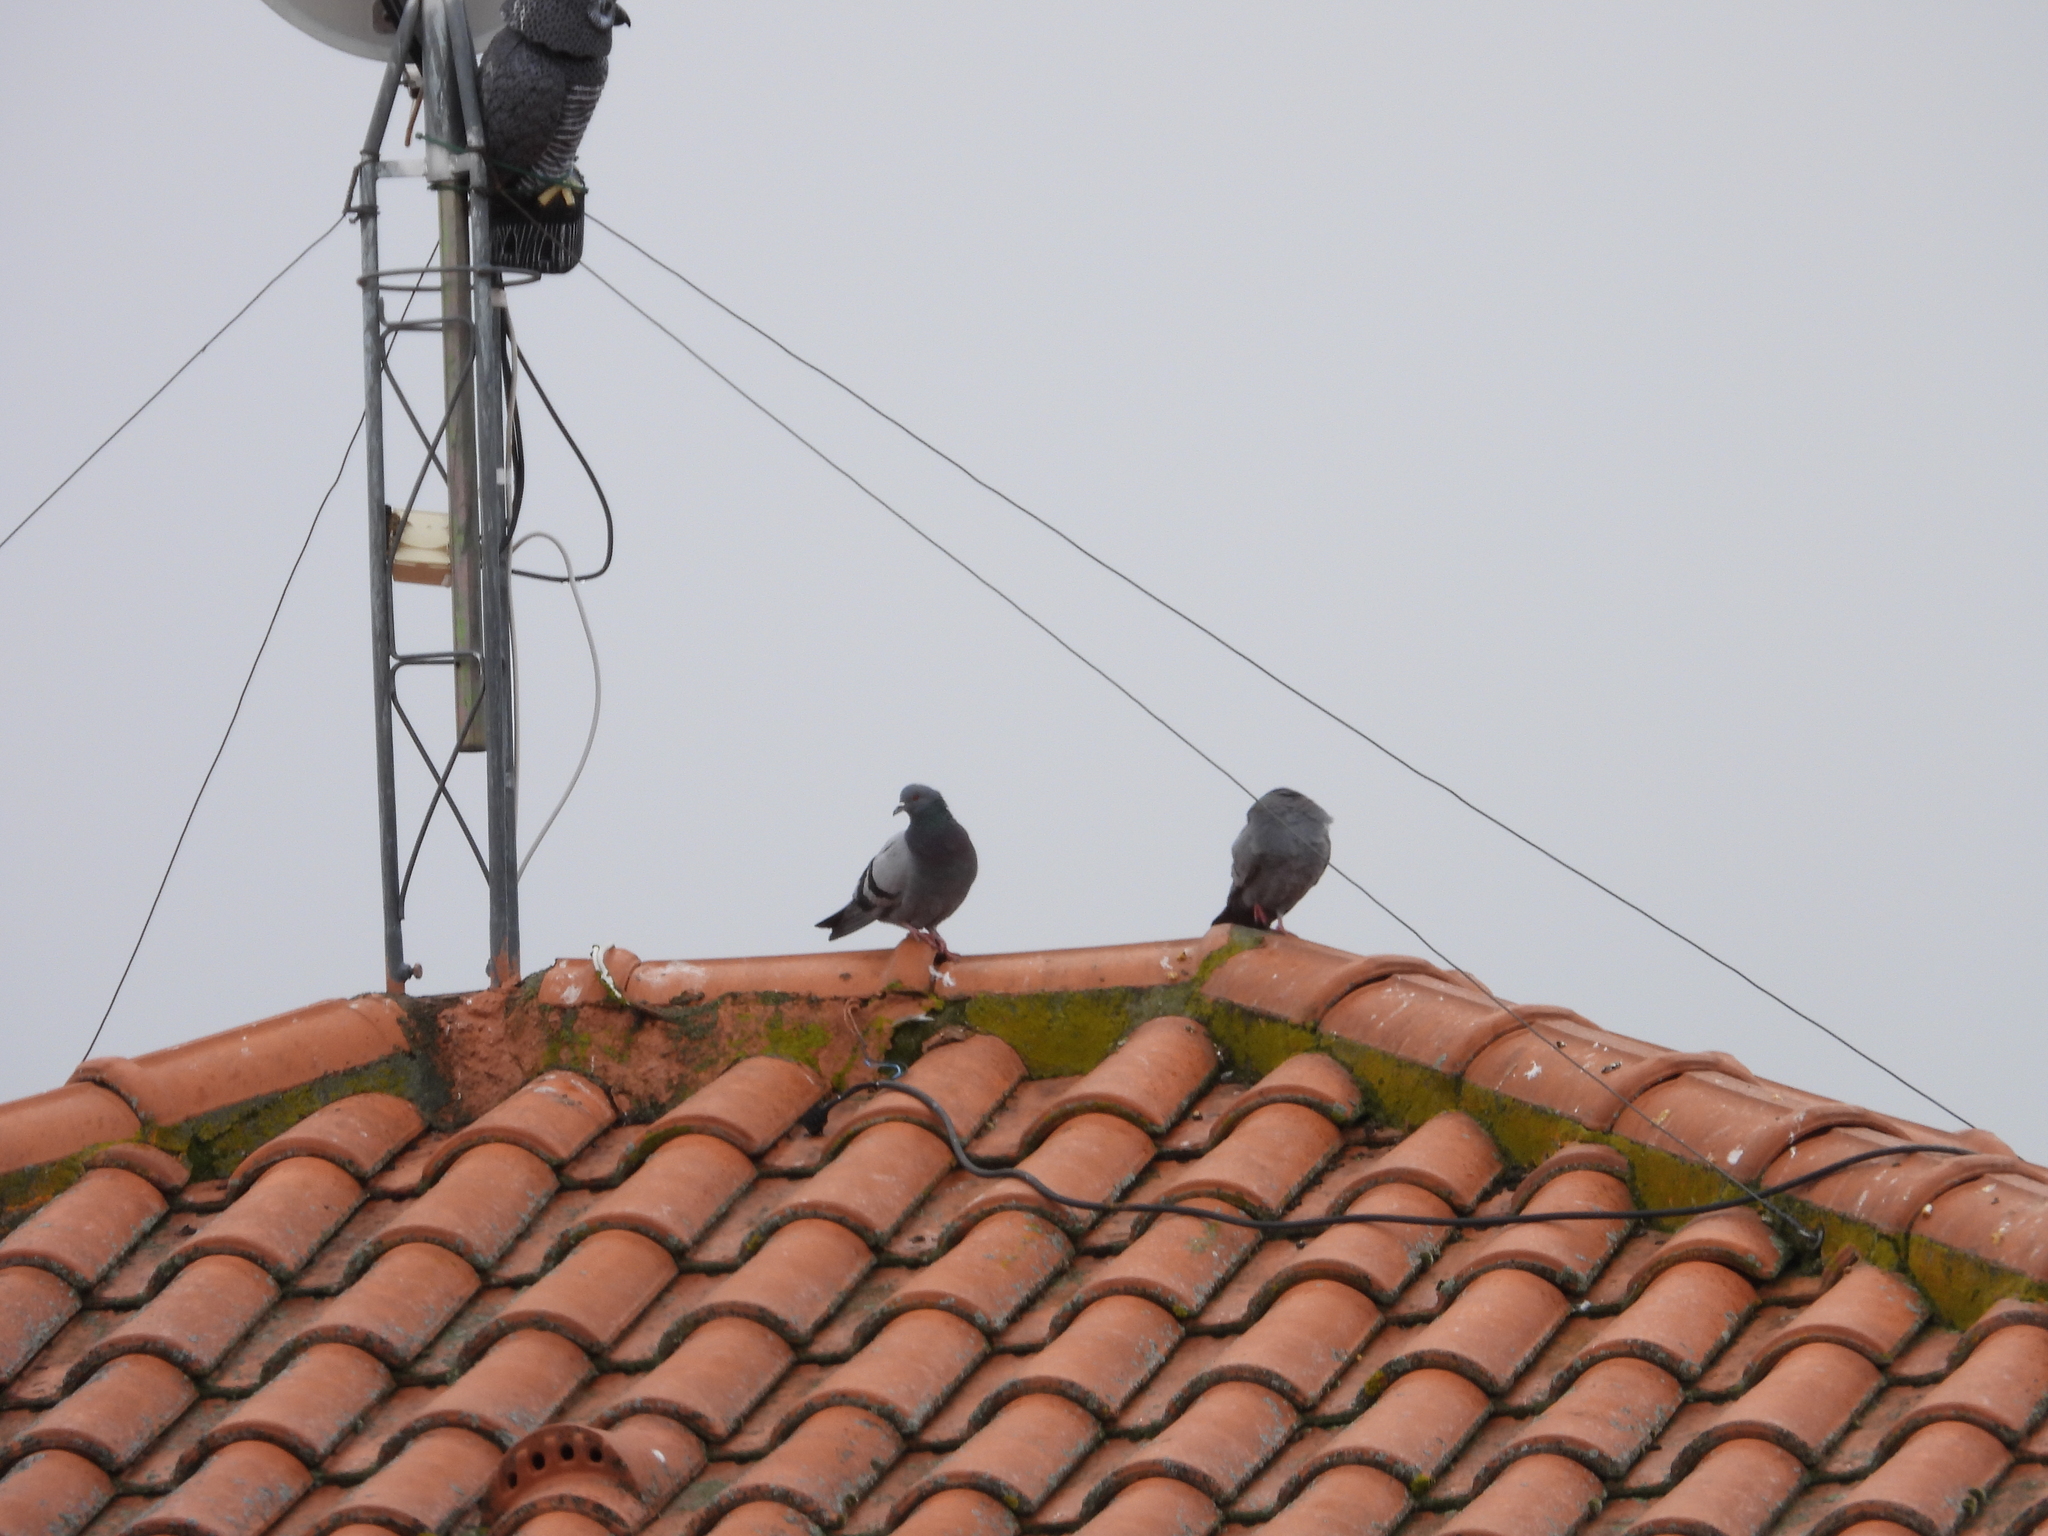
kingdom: Animalia
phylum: Chordata
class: Aves
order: Columbiformes
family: Columbidae
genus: Columba
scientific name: Columba livia
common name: Rock pigeon
